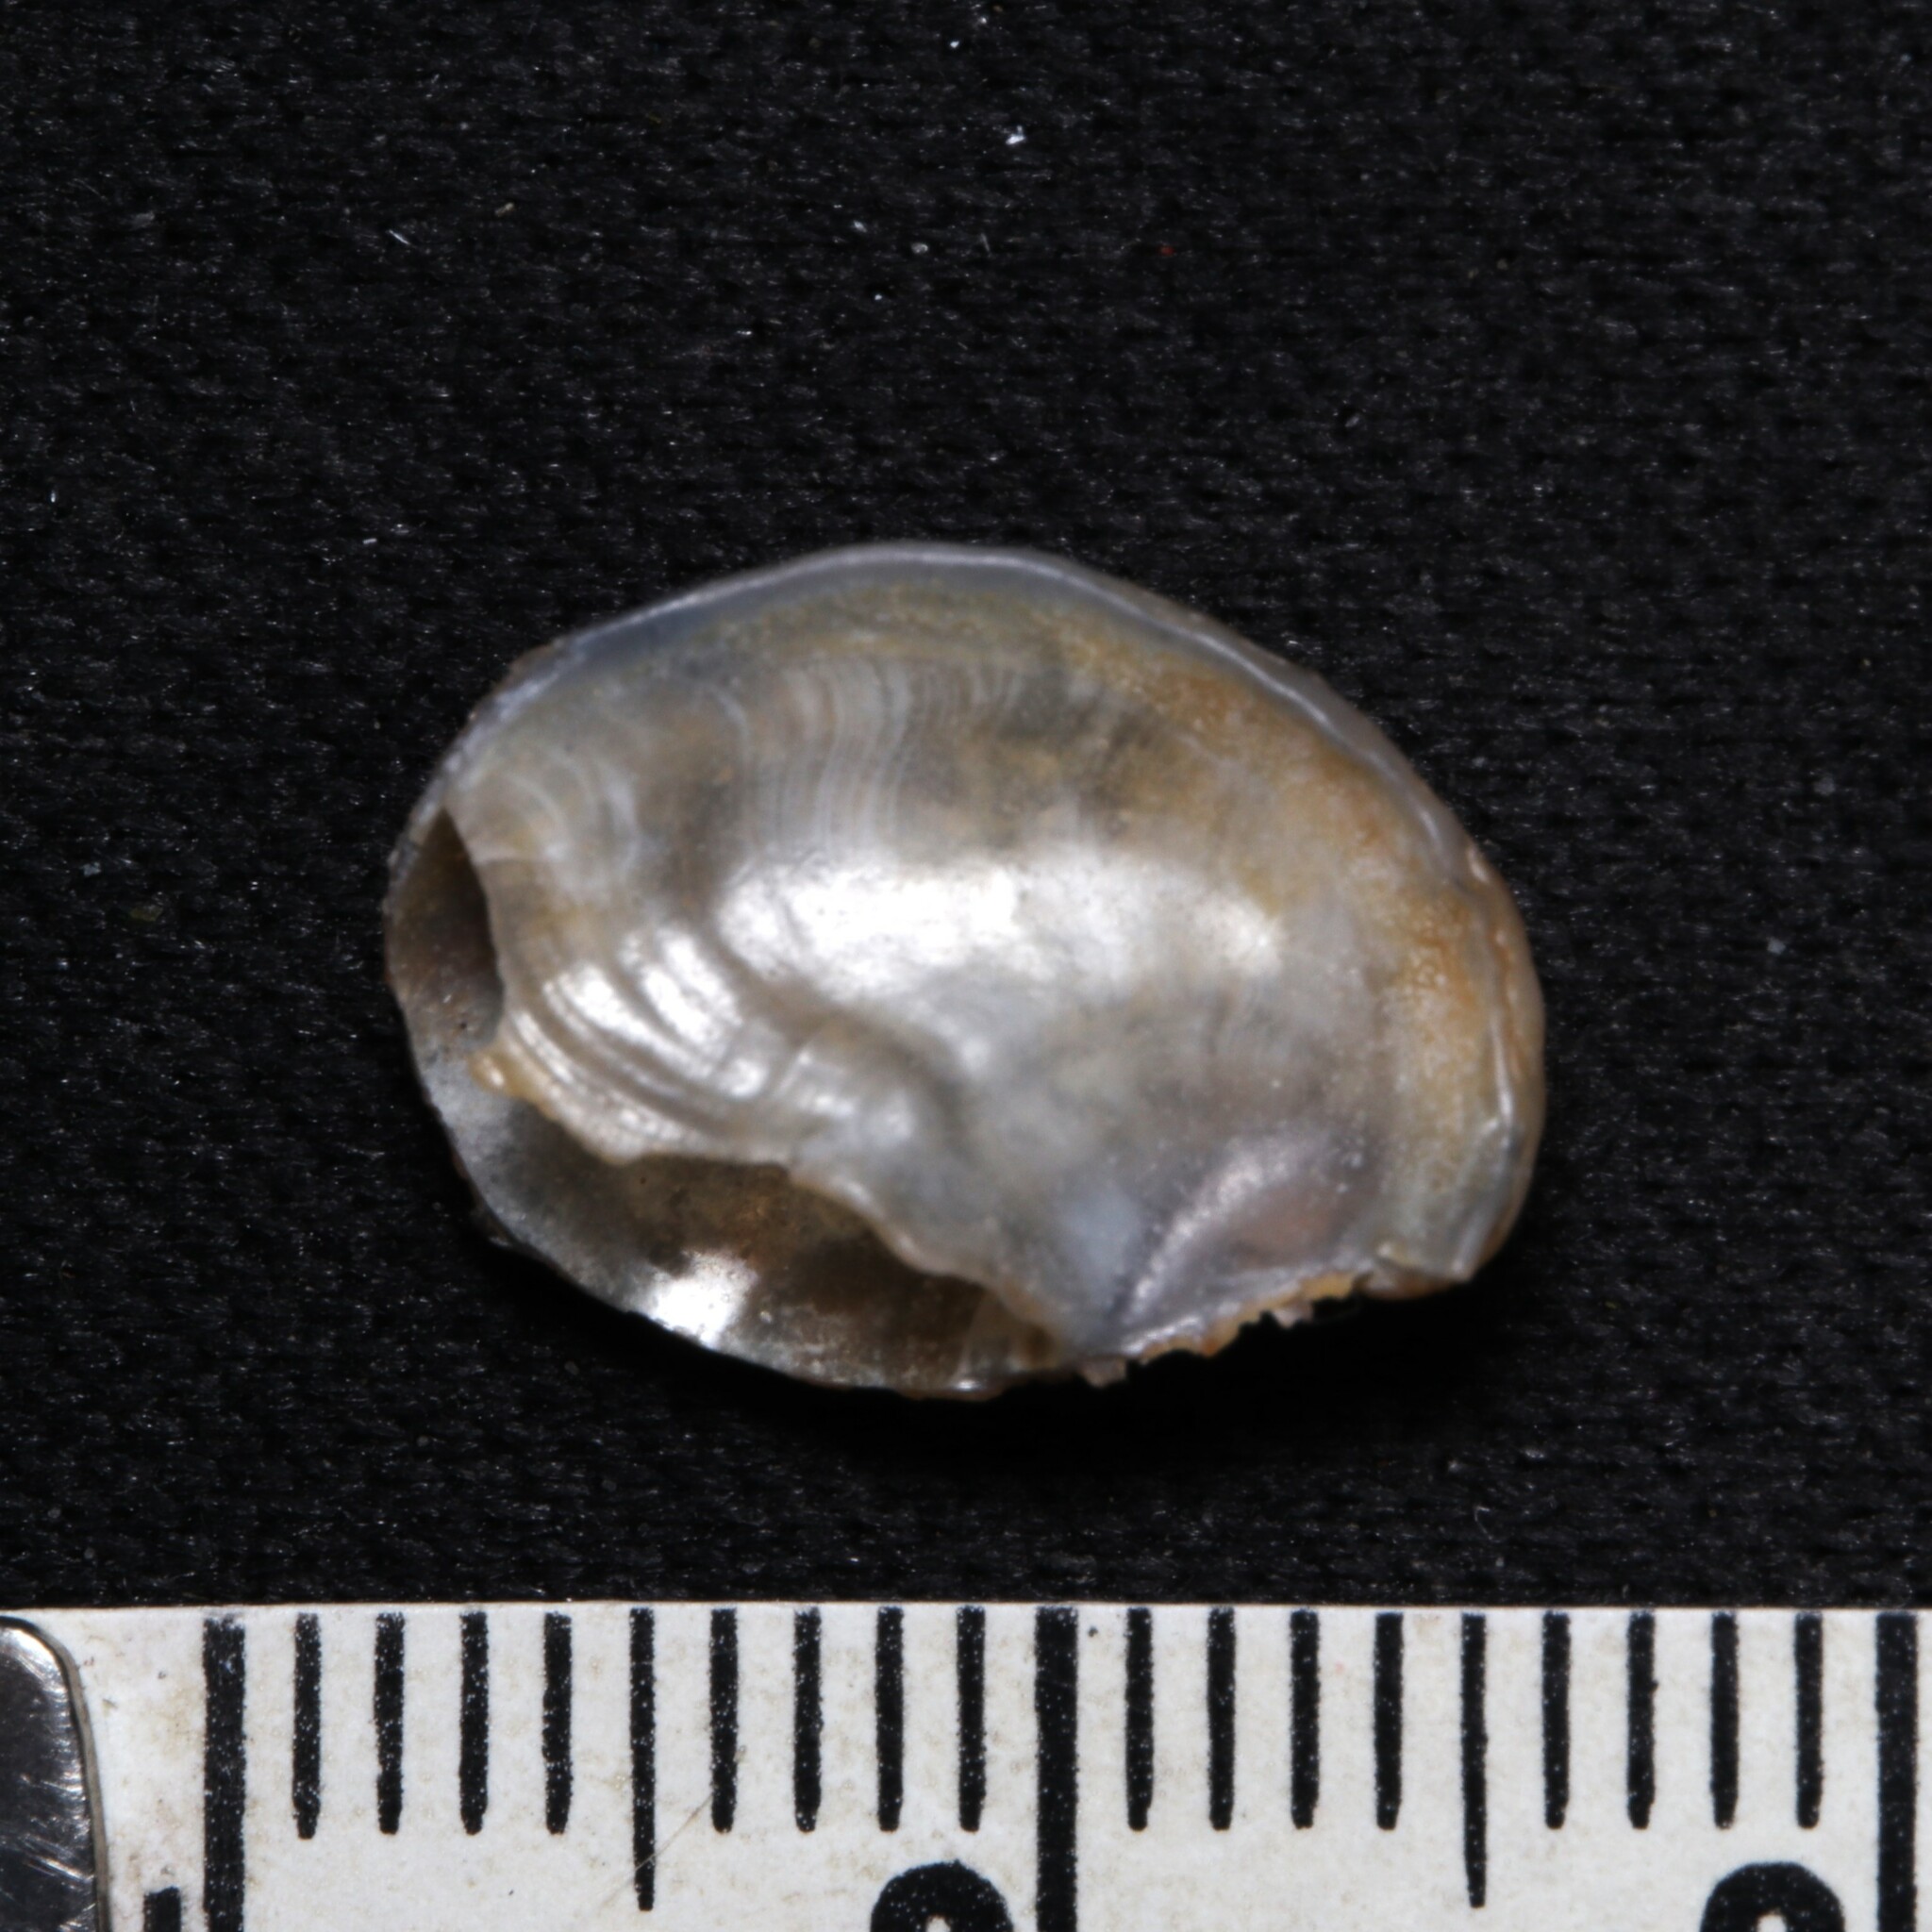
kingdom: Animalia
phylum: Mollusca
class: Gastropoda
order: Littorinimorpha
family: Calyptraeidae
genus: Bostrycapulus
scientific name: Bostrycapulus aculeatus
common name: Spiny slippersnail
